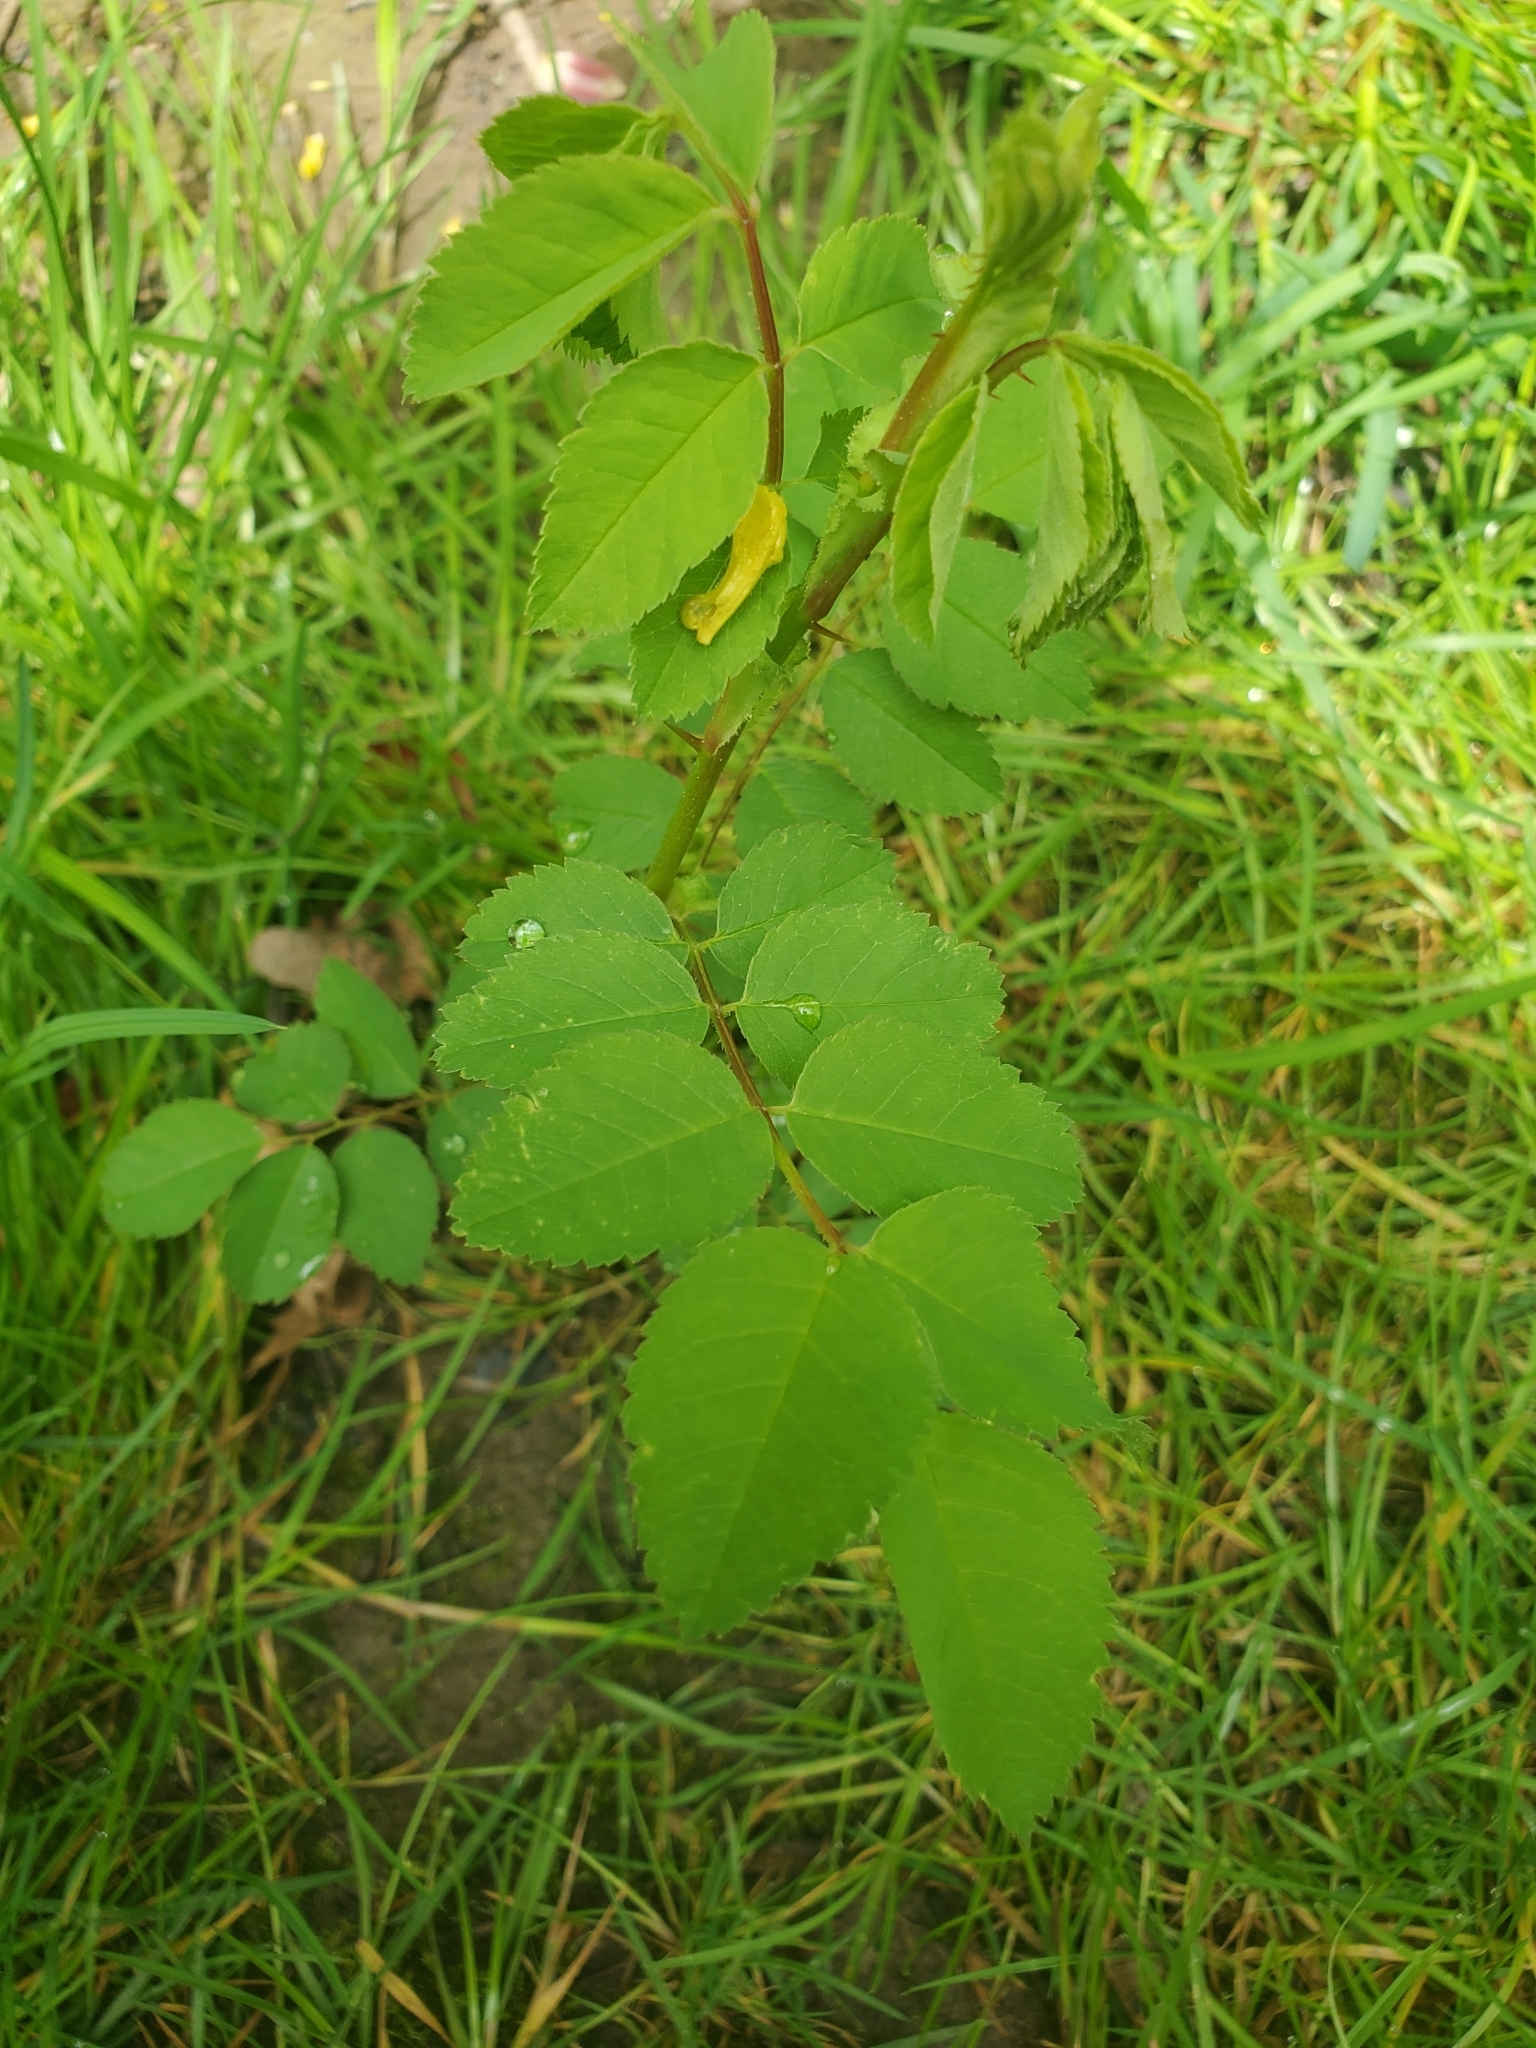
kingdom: Plantae
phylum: Tracheophyta
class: Magnoliopsida
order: Rosales
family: Rosaceae
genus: Rosa
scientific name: Rosa nutkana
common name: Nootka rose
